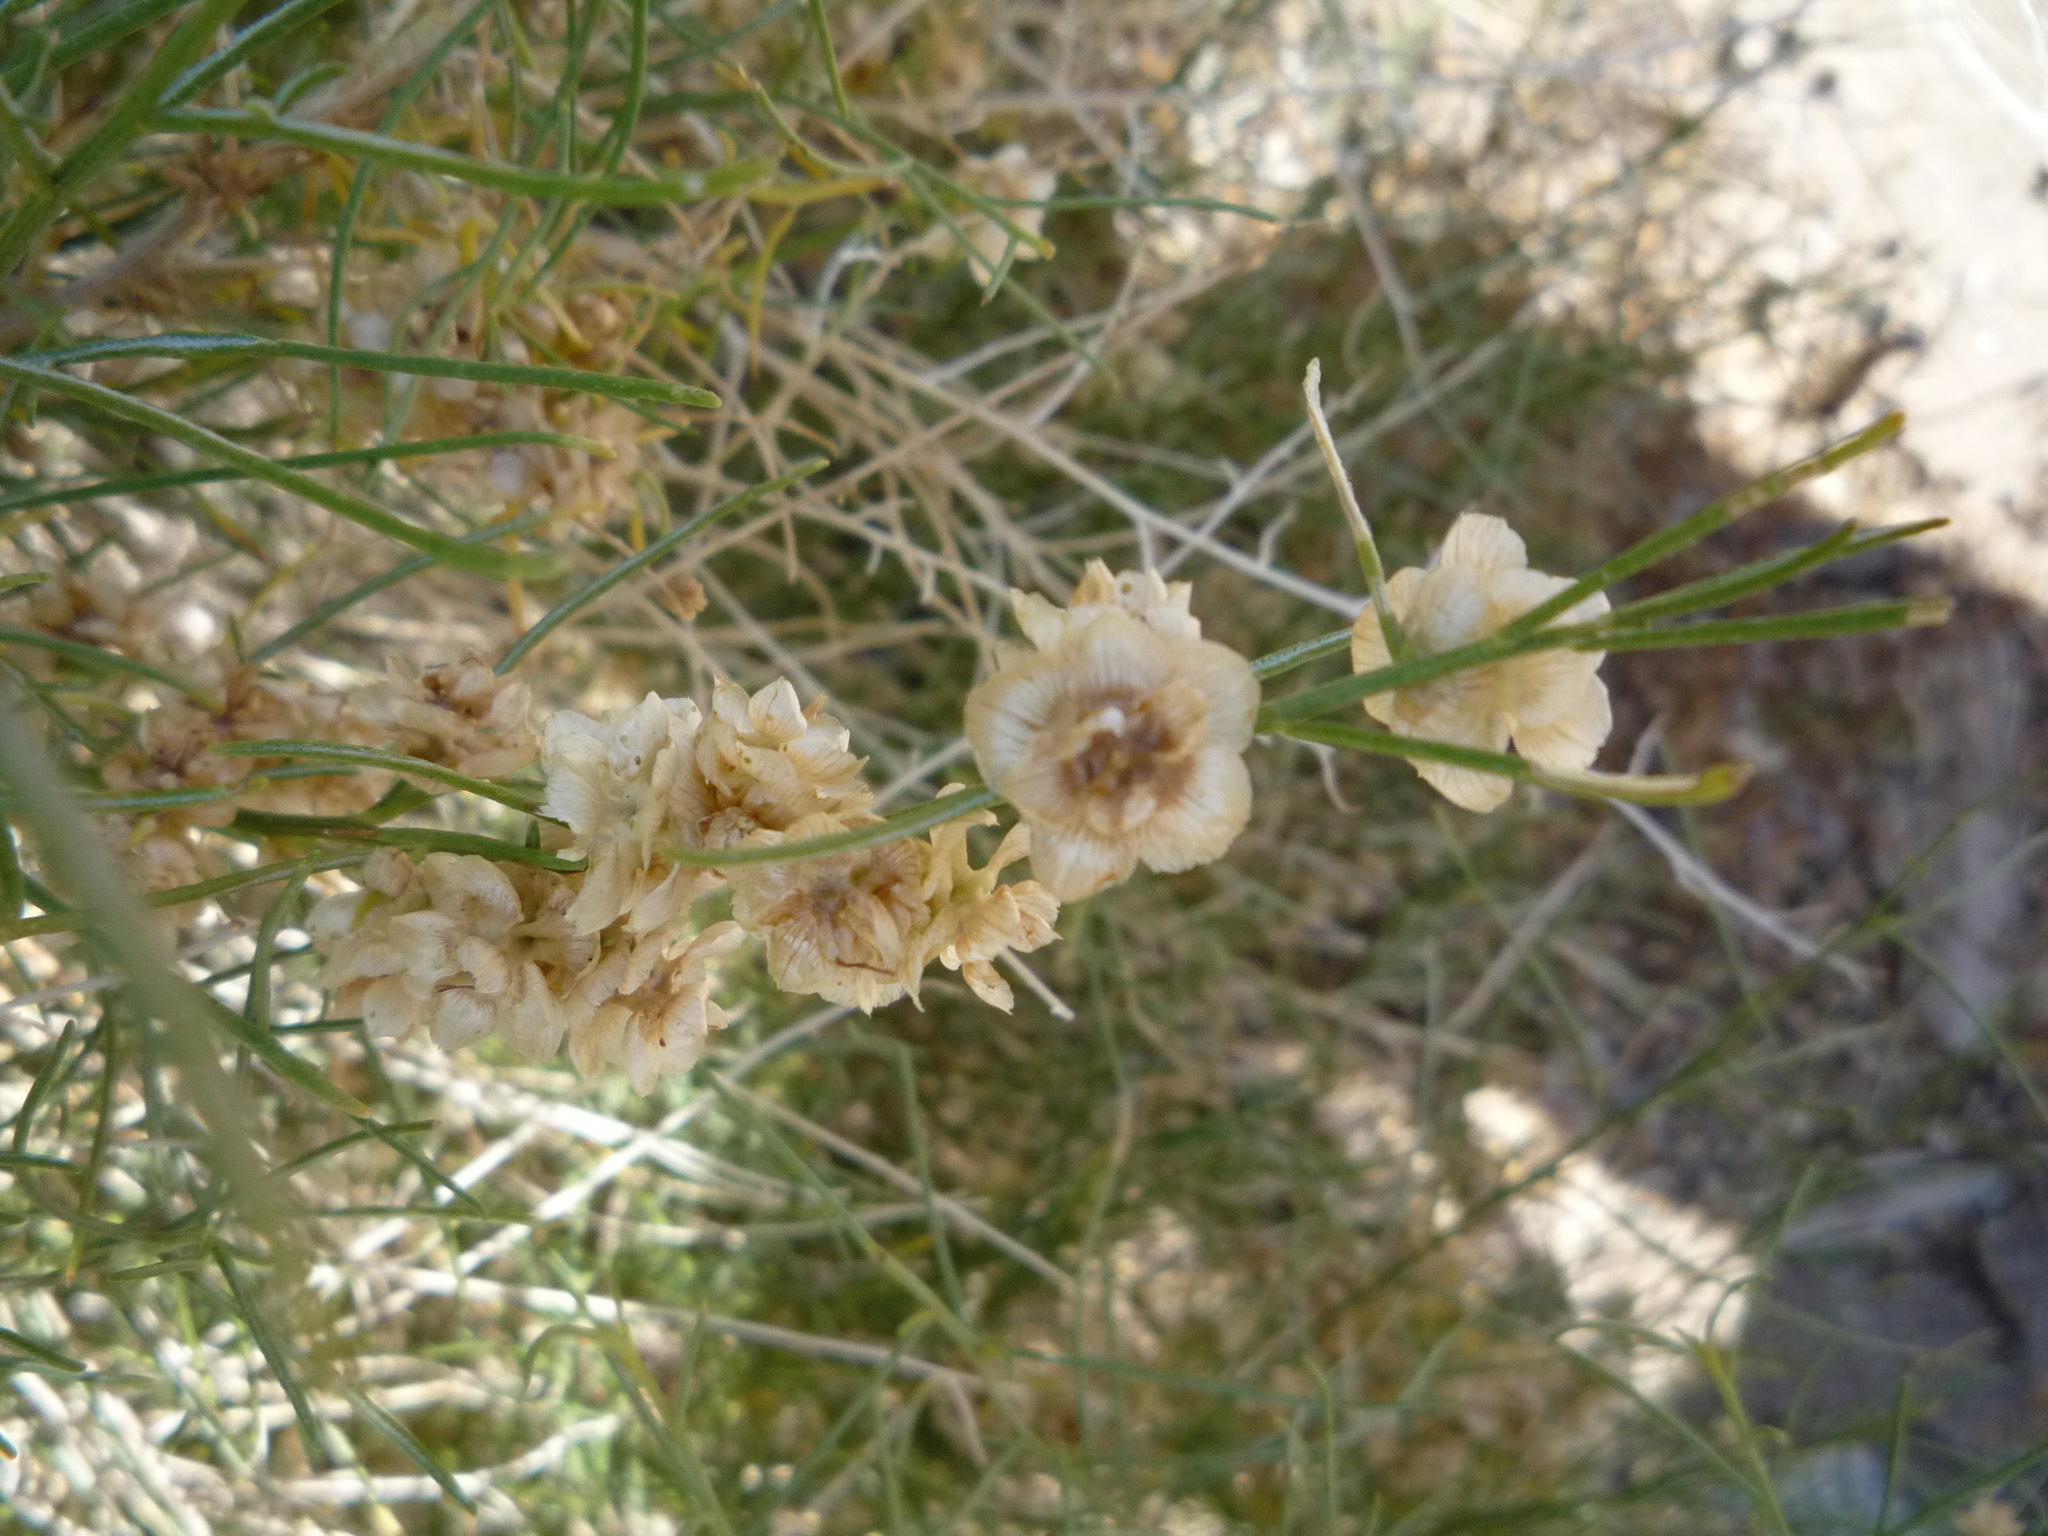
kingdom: Plantae
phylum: Tracheophyta
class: Magnoliopsida
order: Asterales
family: Asteraceae
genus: Ambrosia
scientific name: Ambrosia salsola
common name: Burrobrush
